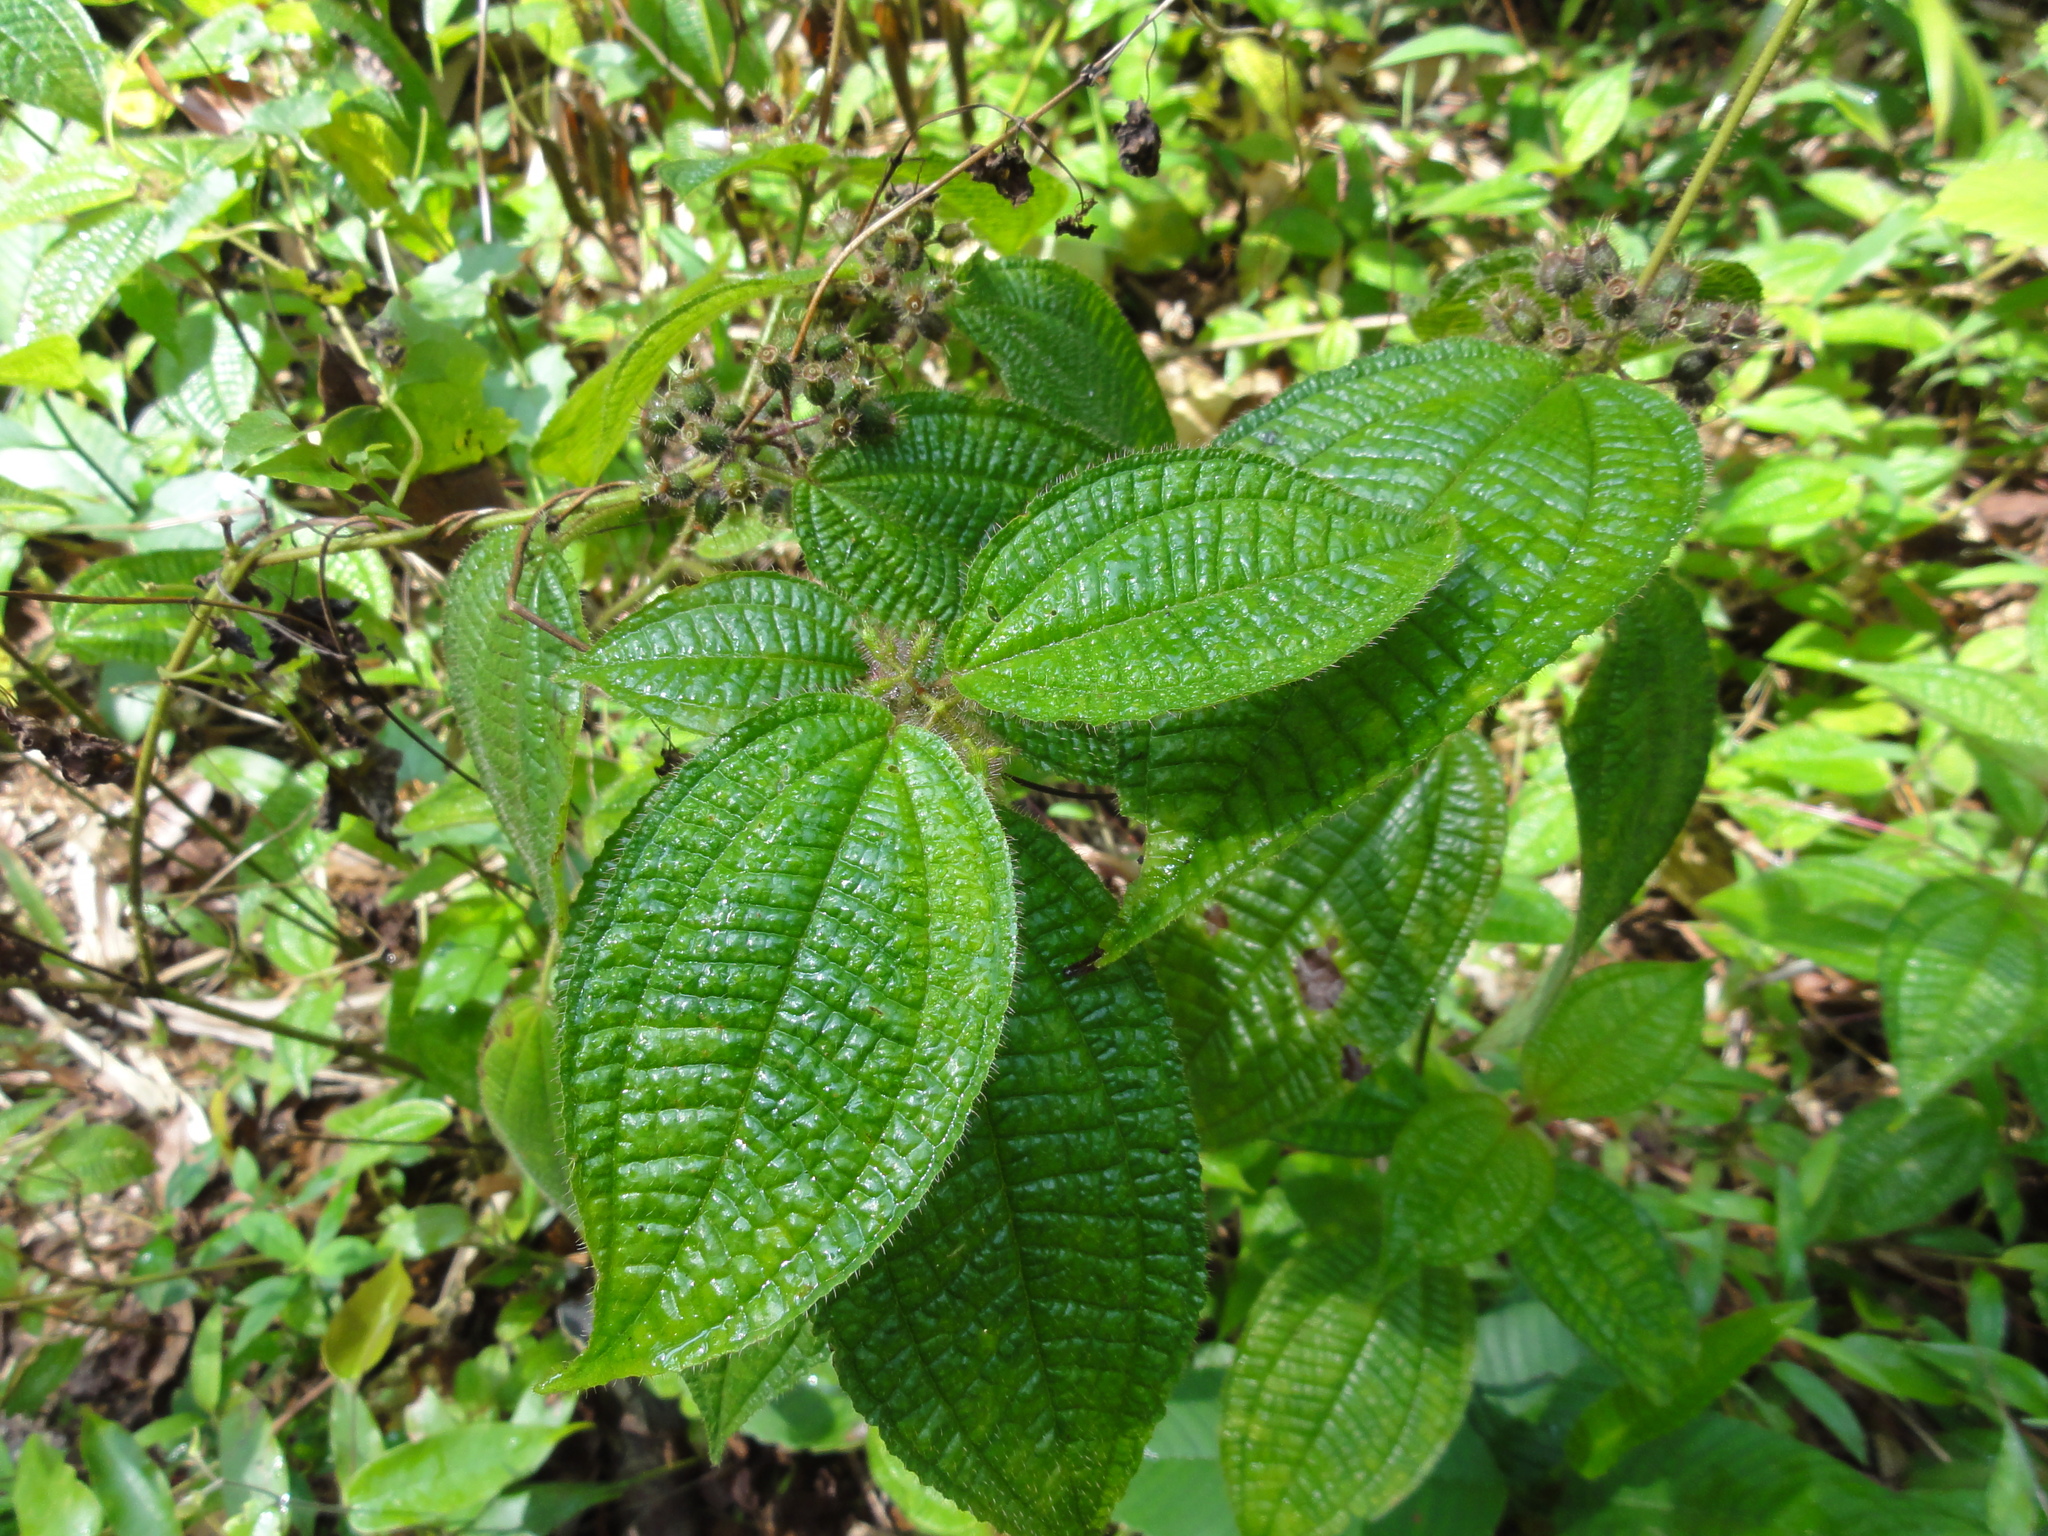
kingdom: Plantae
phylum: Tracheophyta
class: Magnoliopsida
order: Myrtales
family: Melastomataceae
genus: Miconia
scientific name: Miconia crenata
